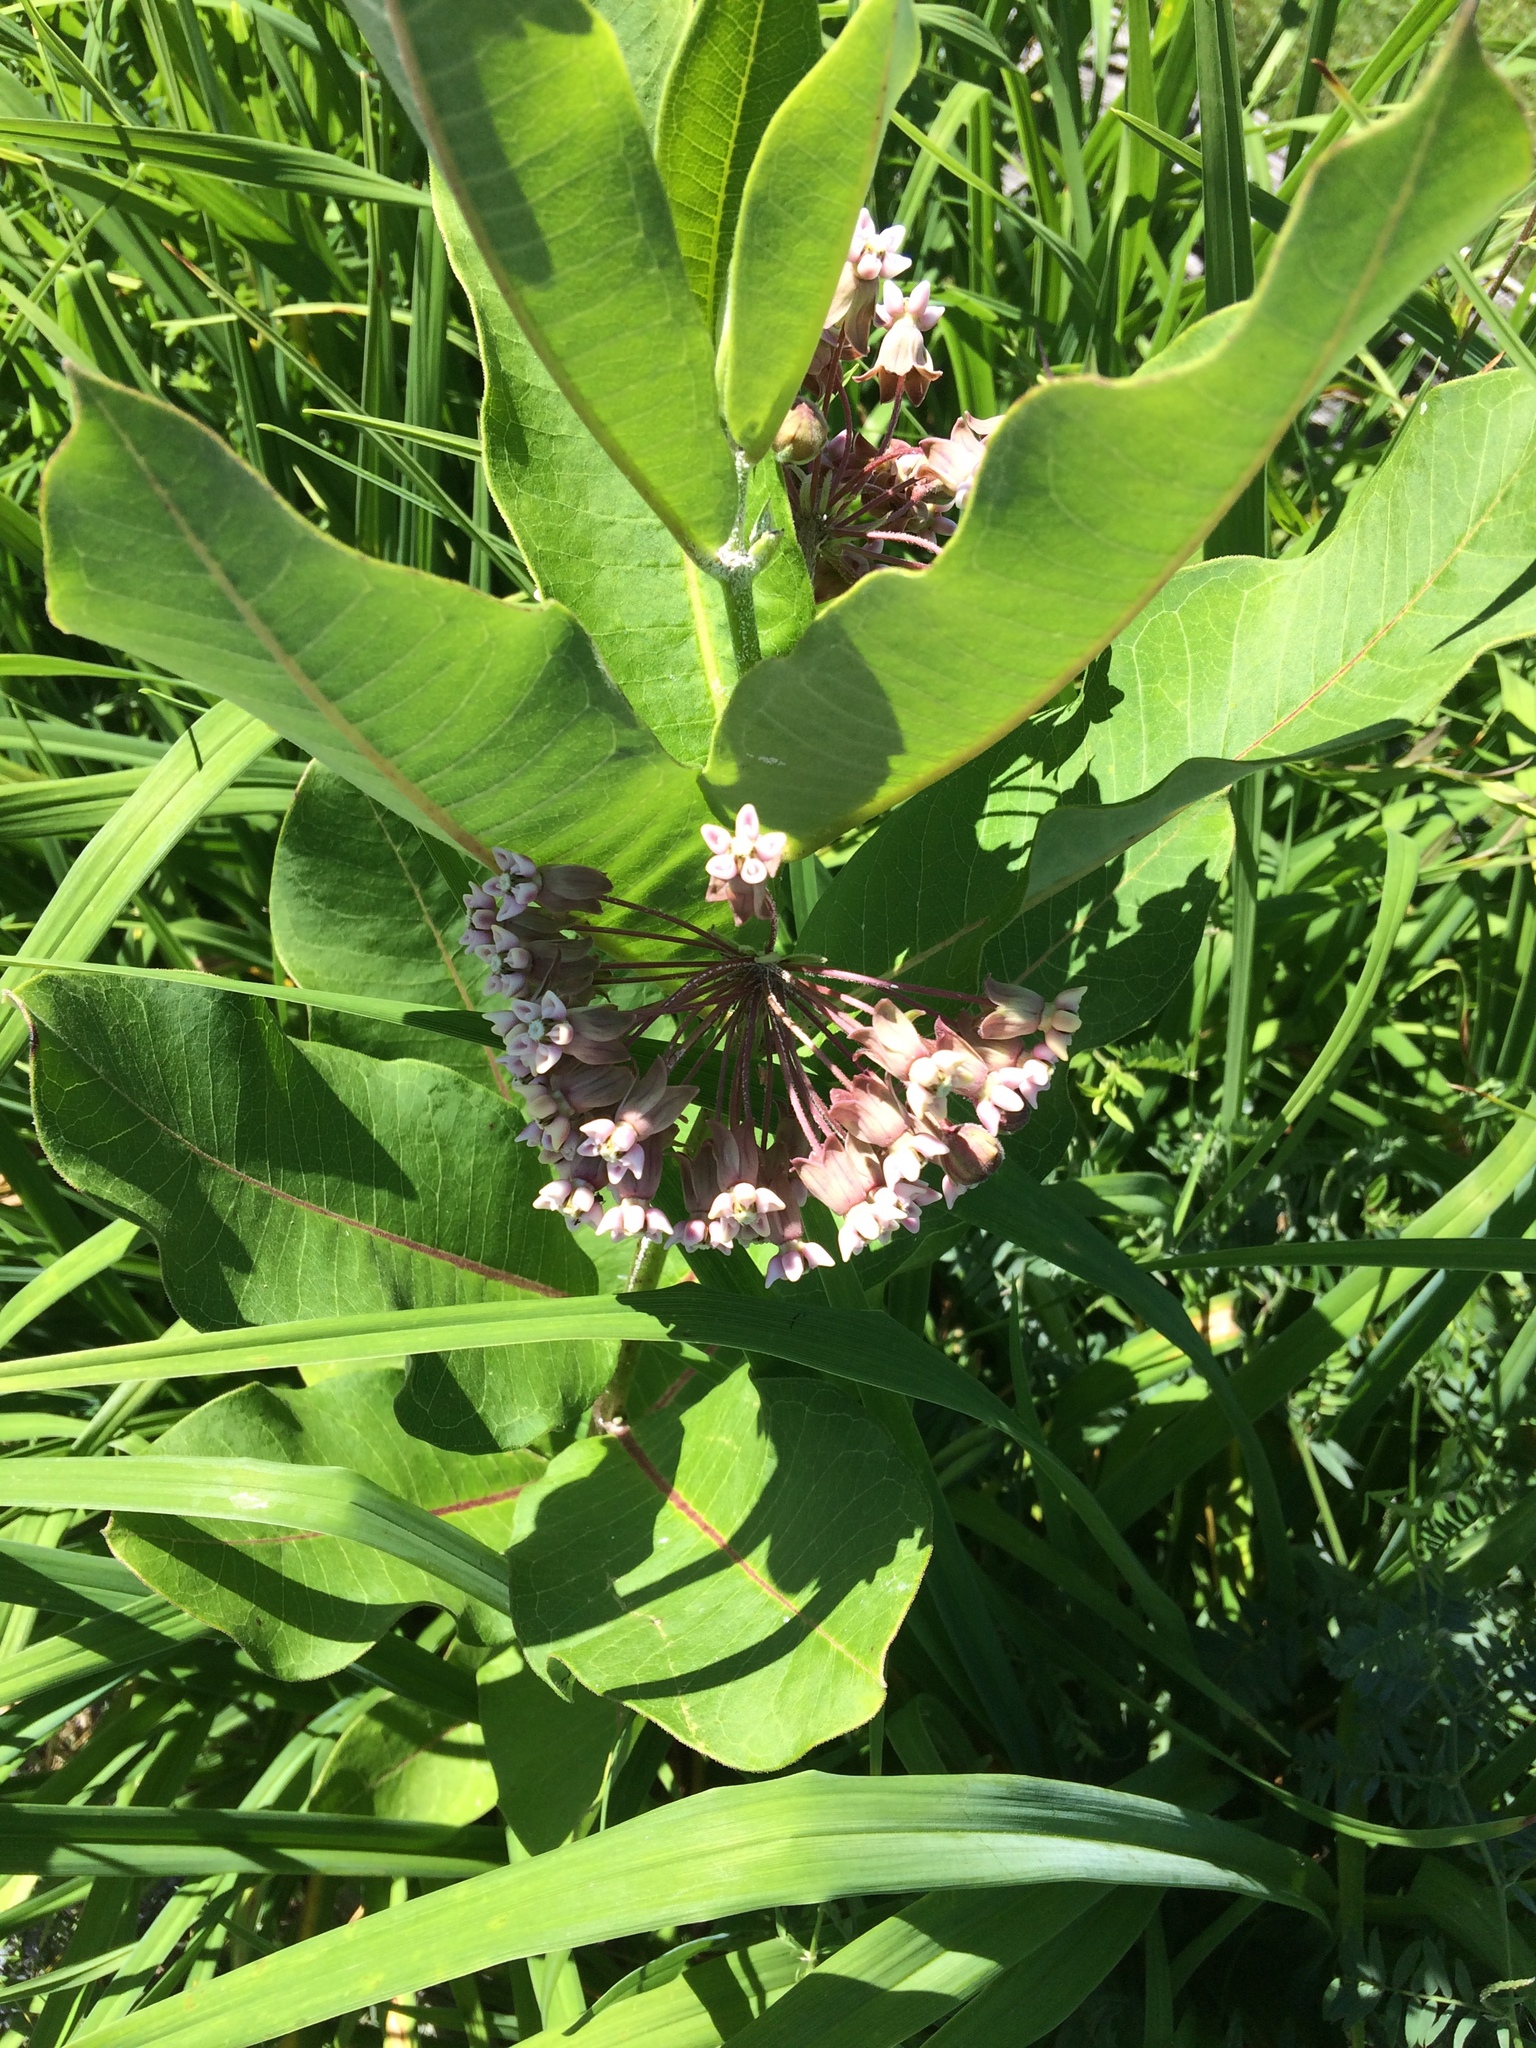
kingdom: Plantae
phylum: Tracheophyta
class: Magnoliopsida
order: Gentianales
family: Apocynaceae
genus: Asclepias
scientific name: Asclepias syriaca
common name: Common milkweed
